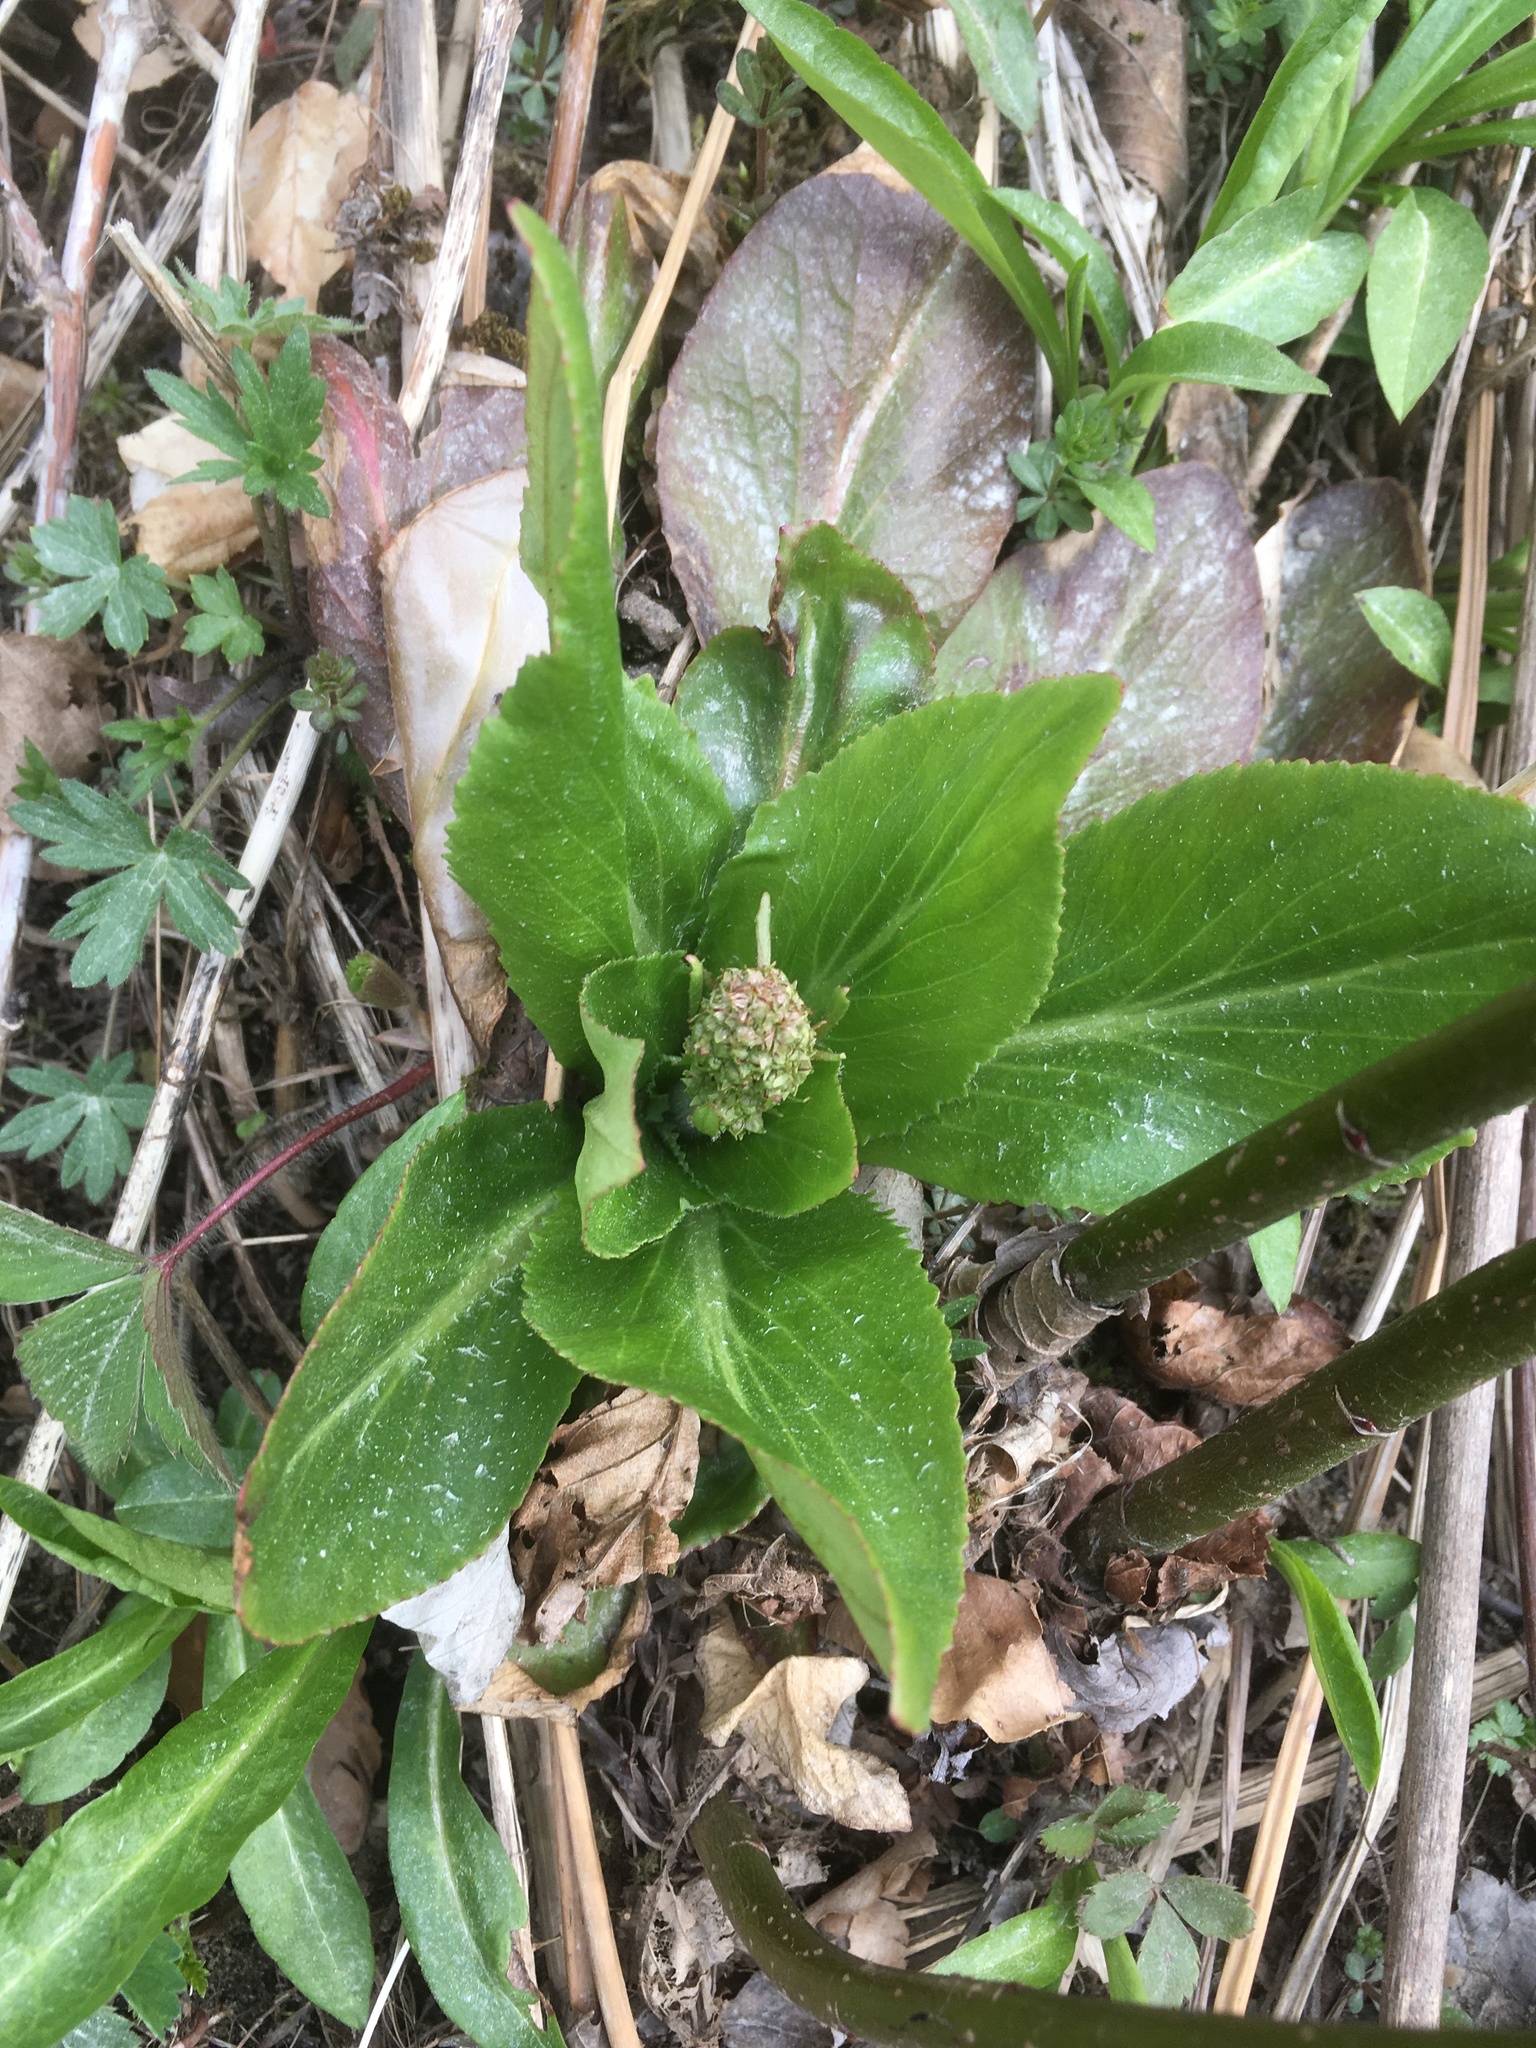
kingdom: Plantae
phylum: Tracheophyta
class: Magnoliopsida
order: Saxifragales
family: Saxifragaceae
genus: Micranthes
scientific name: Micranthes pensylvanica
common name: Marsh saxifrage
